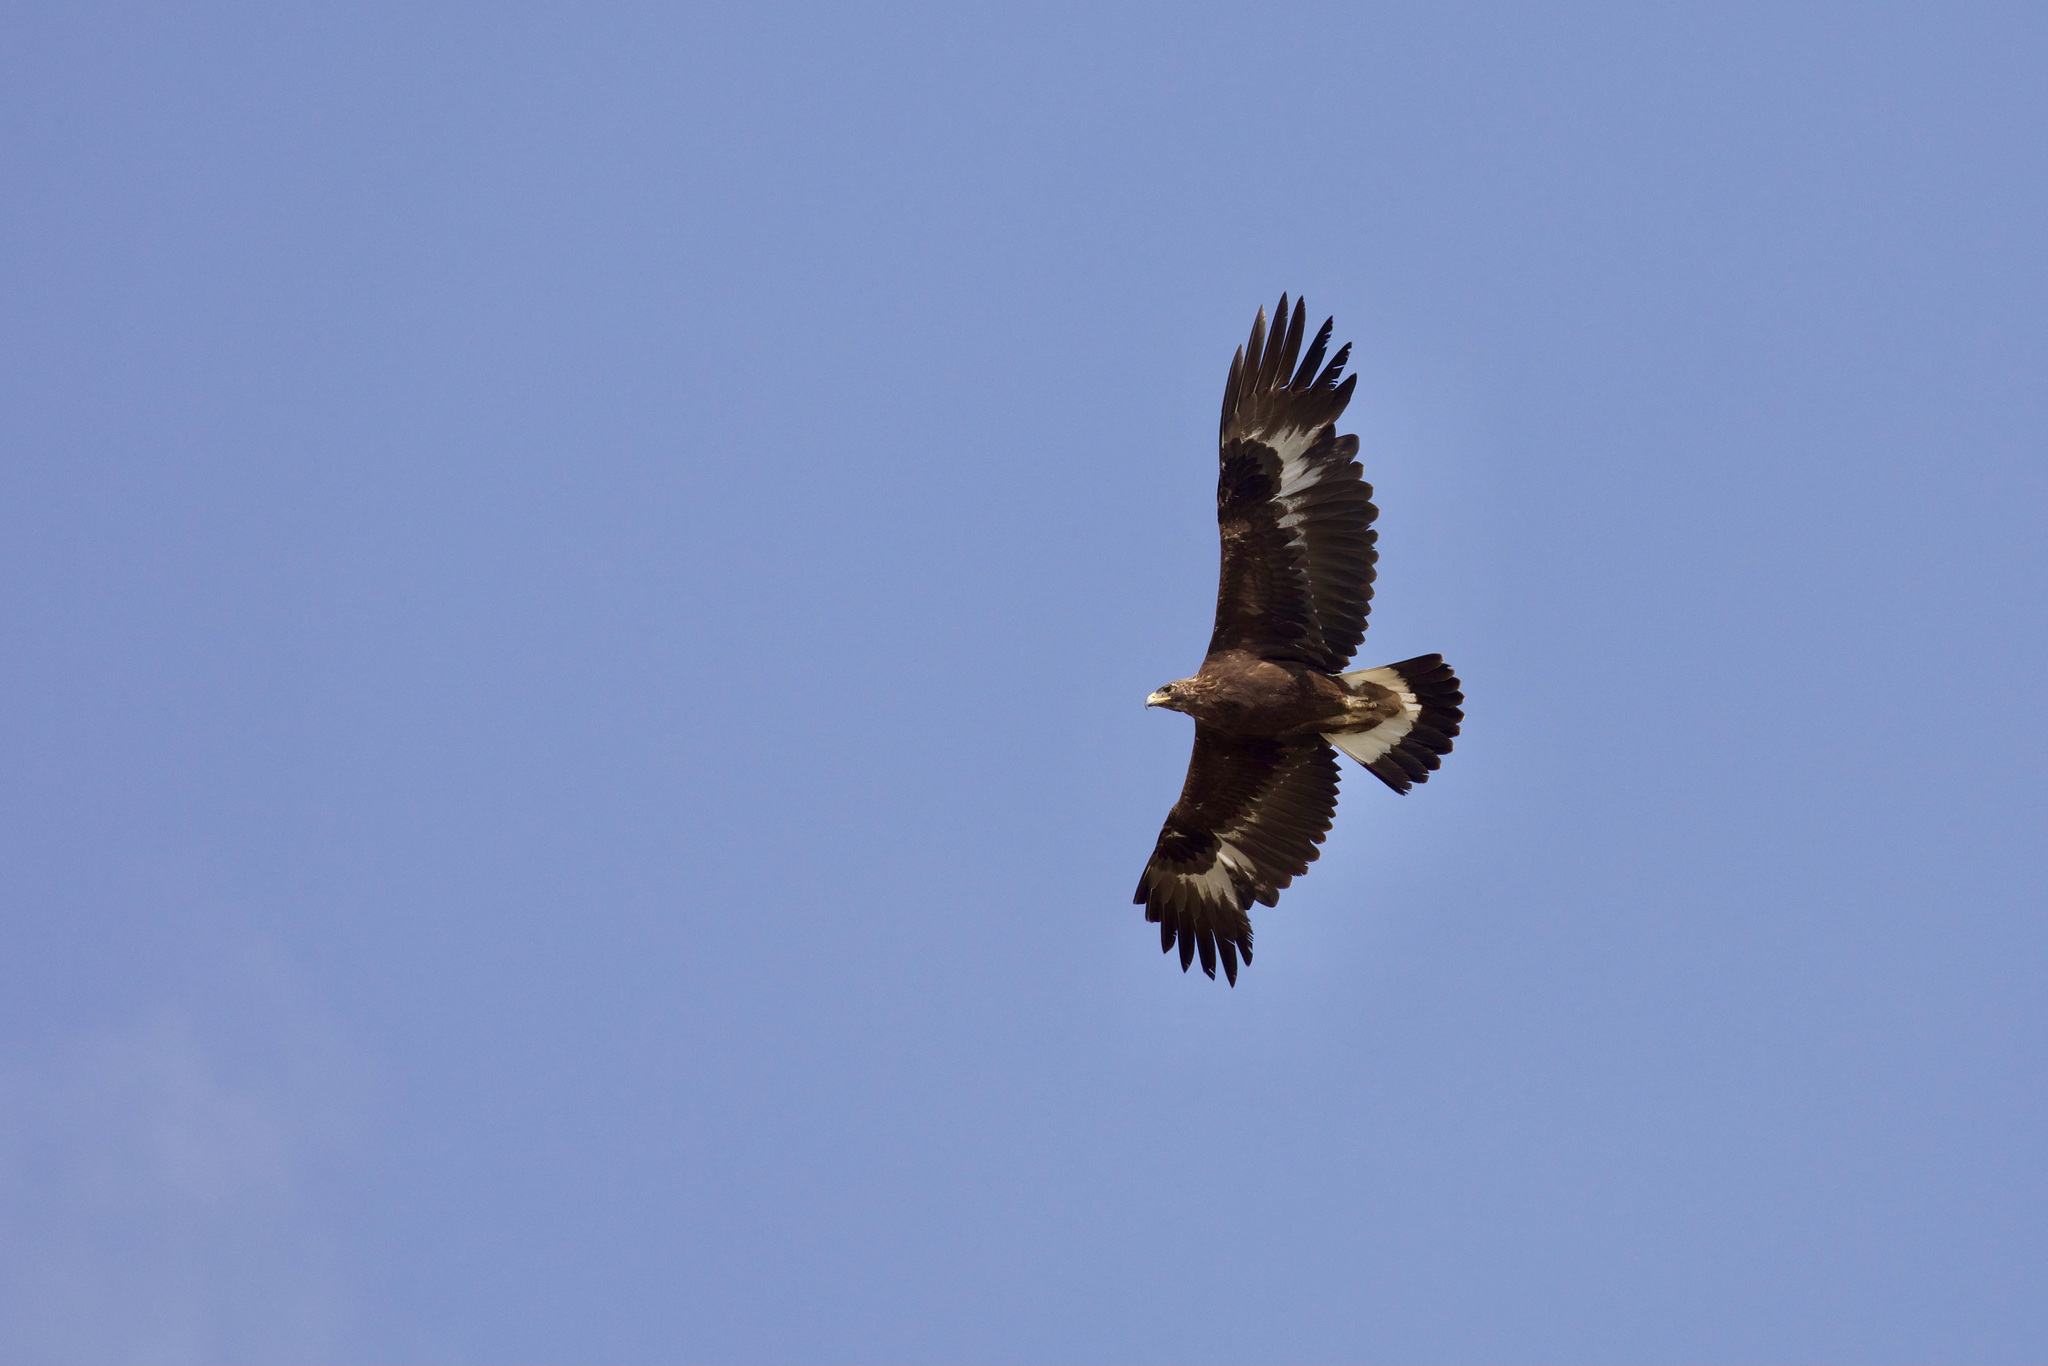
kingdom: Animalia
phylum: Chordata
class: Aves
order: Accipitriformes
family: Accipitridae
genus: Aquila
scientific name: Aquila chrysaetos
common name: Golden eagle
